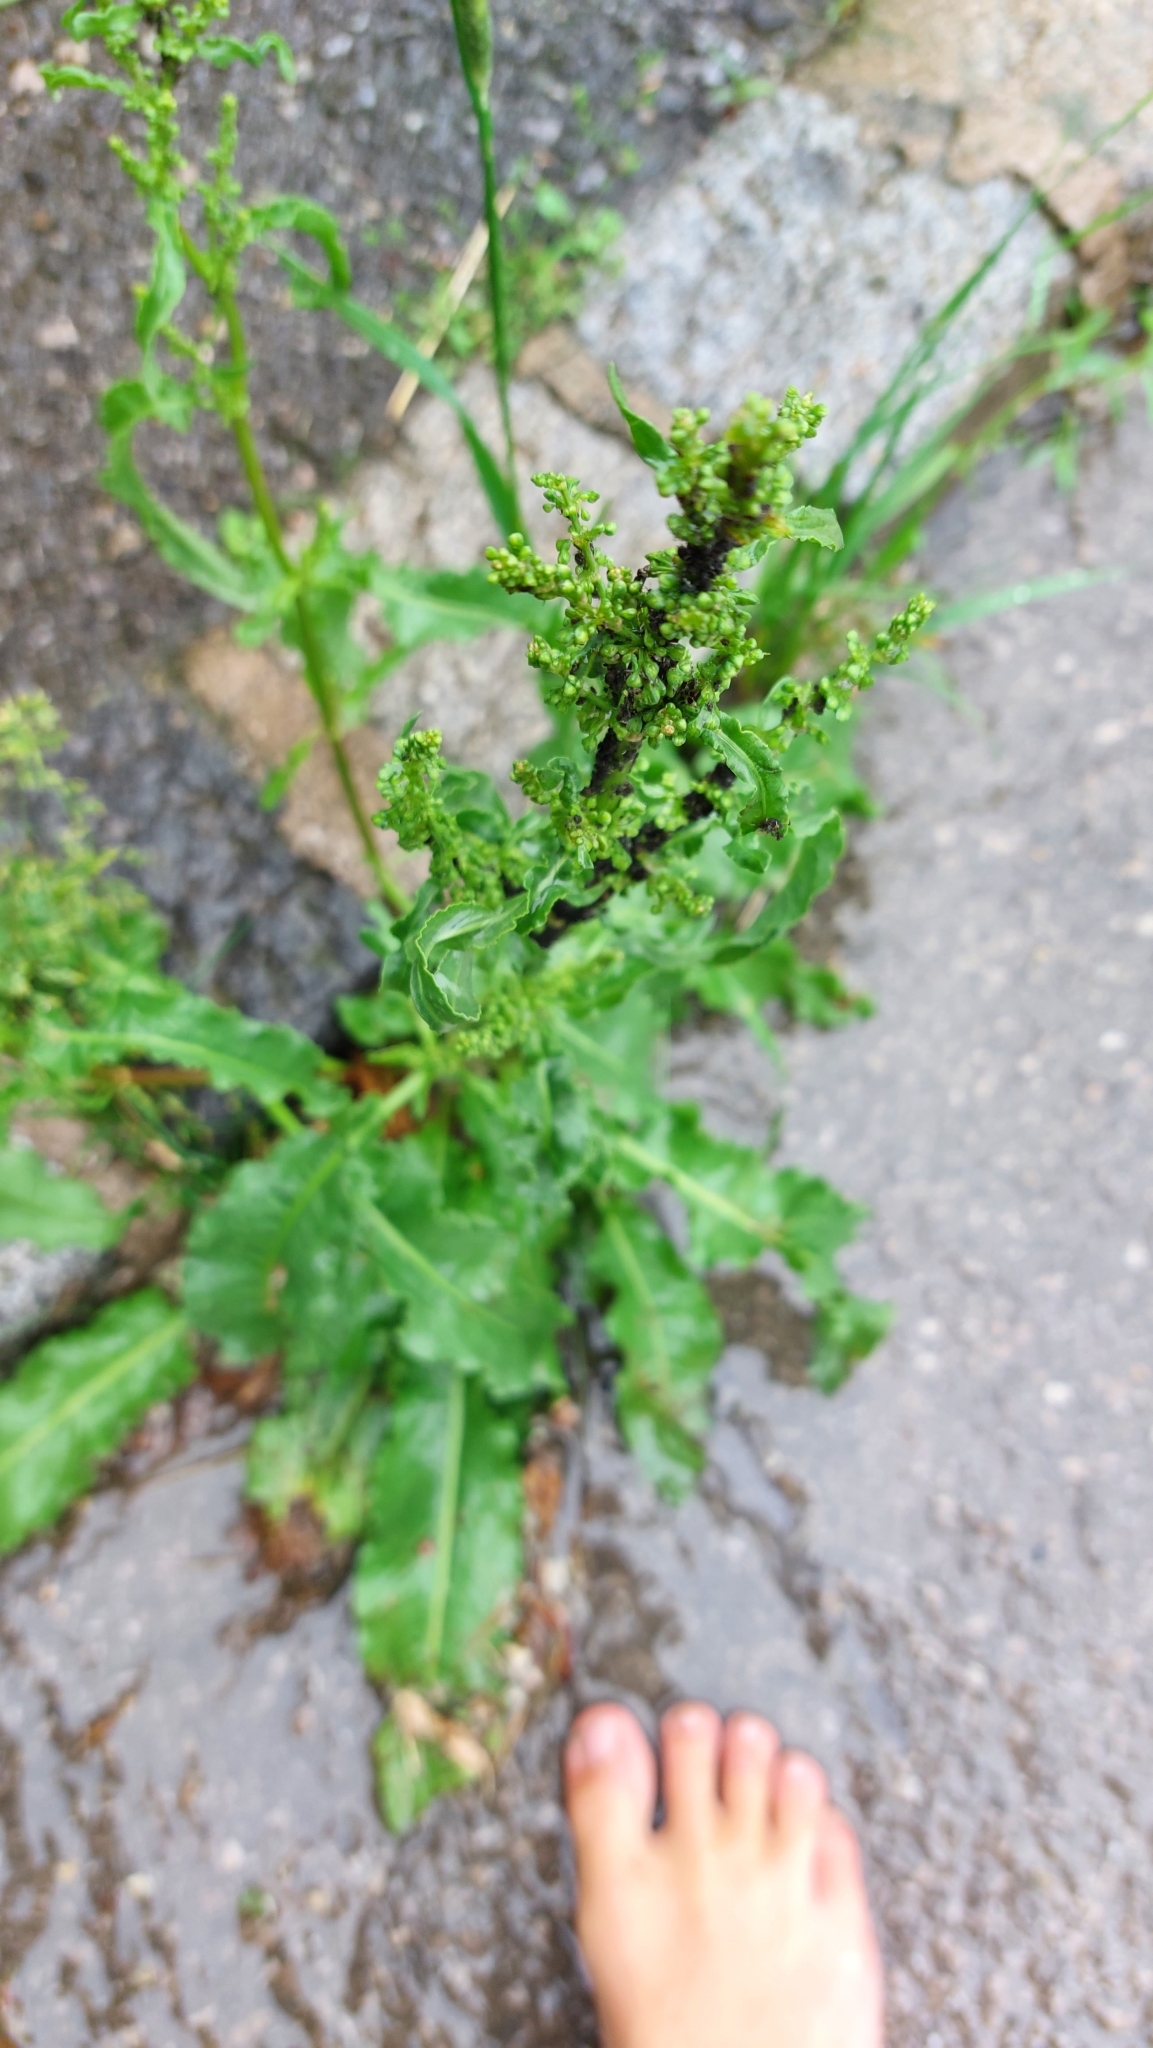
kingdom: Plantae
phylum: Tracheophyta
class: Magnoliopsida
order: Caryophyllales
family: Polygonaceae
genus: Rumex
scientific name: Rumex crispus
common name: Curled dock
